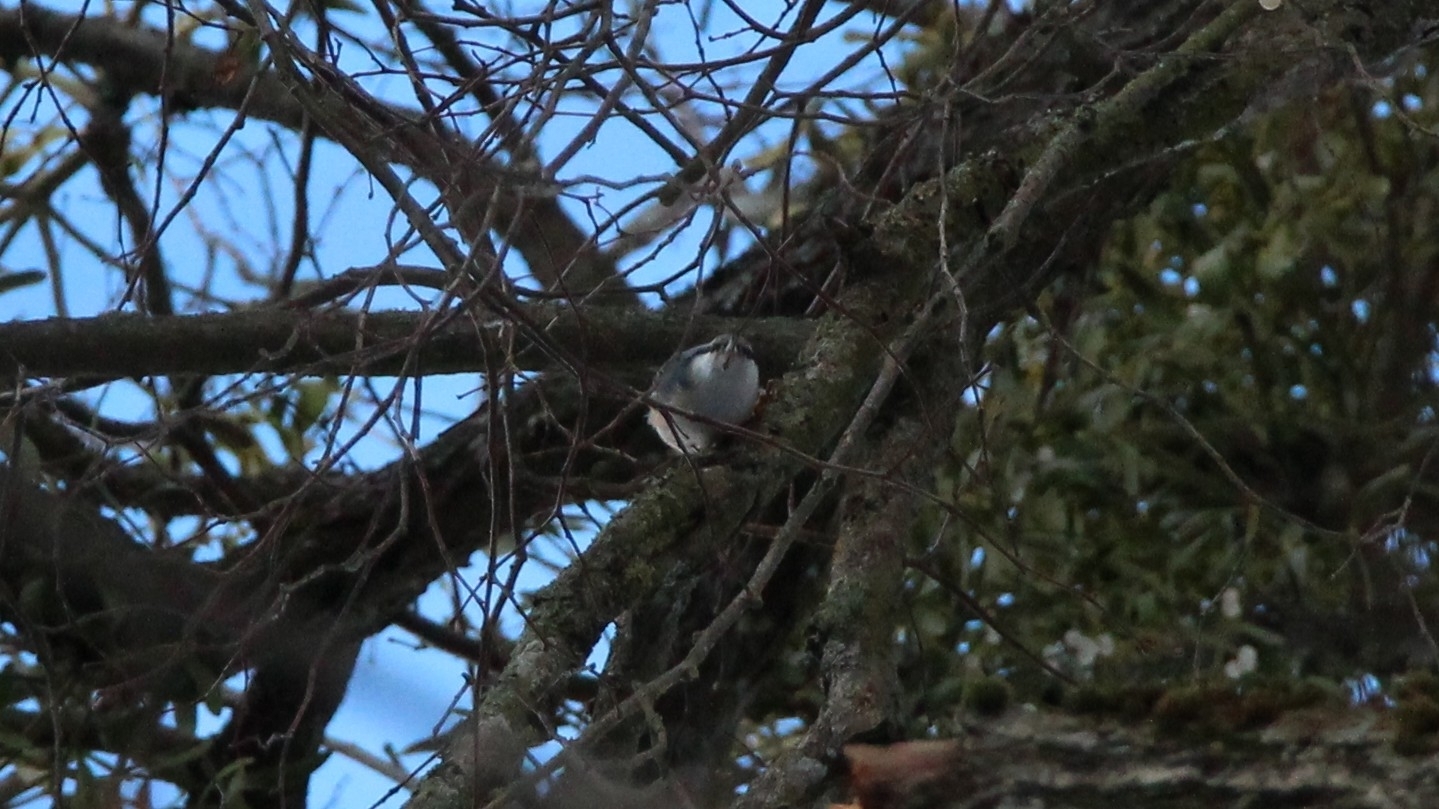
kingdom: Animalia
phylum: Chordata
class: Aves
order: Passeriformes
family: Sittidae
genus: Sitta
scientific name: Sitta europaea
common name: Eurasian nuthatch
